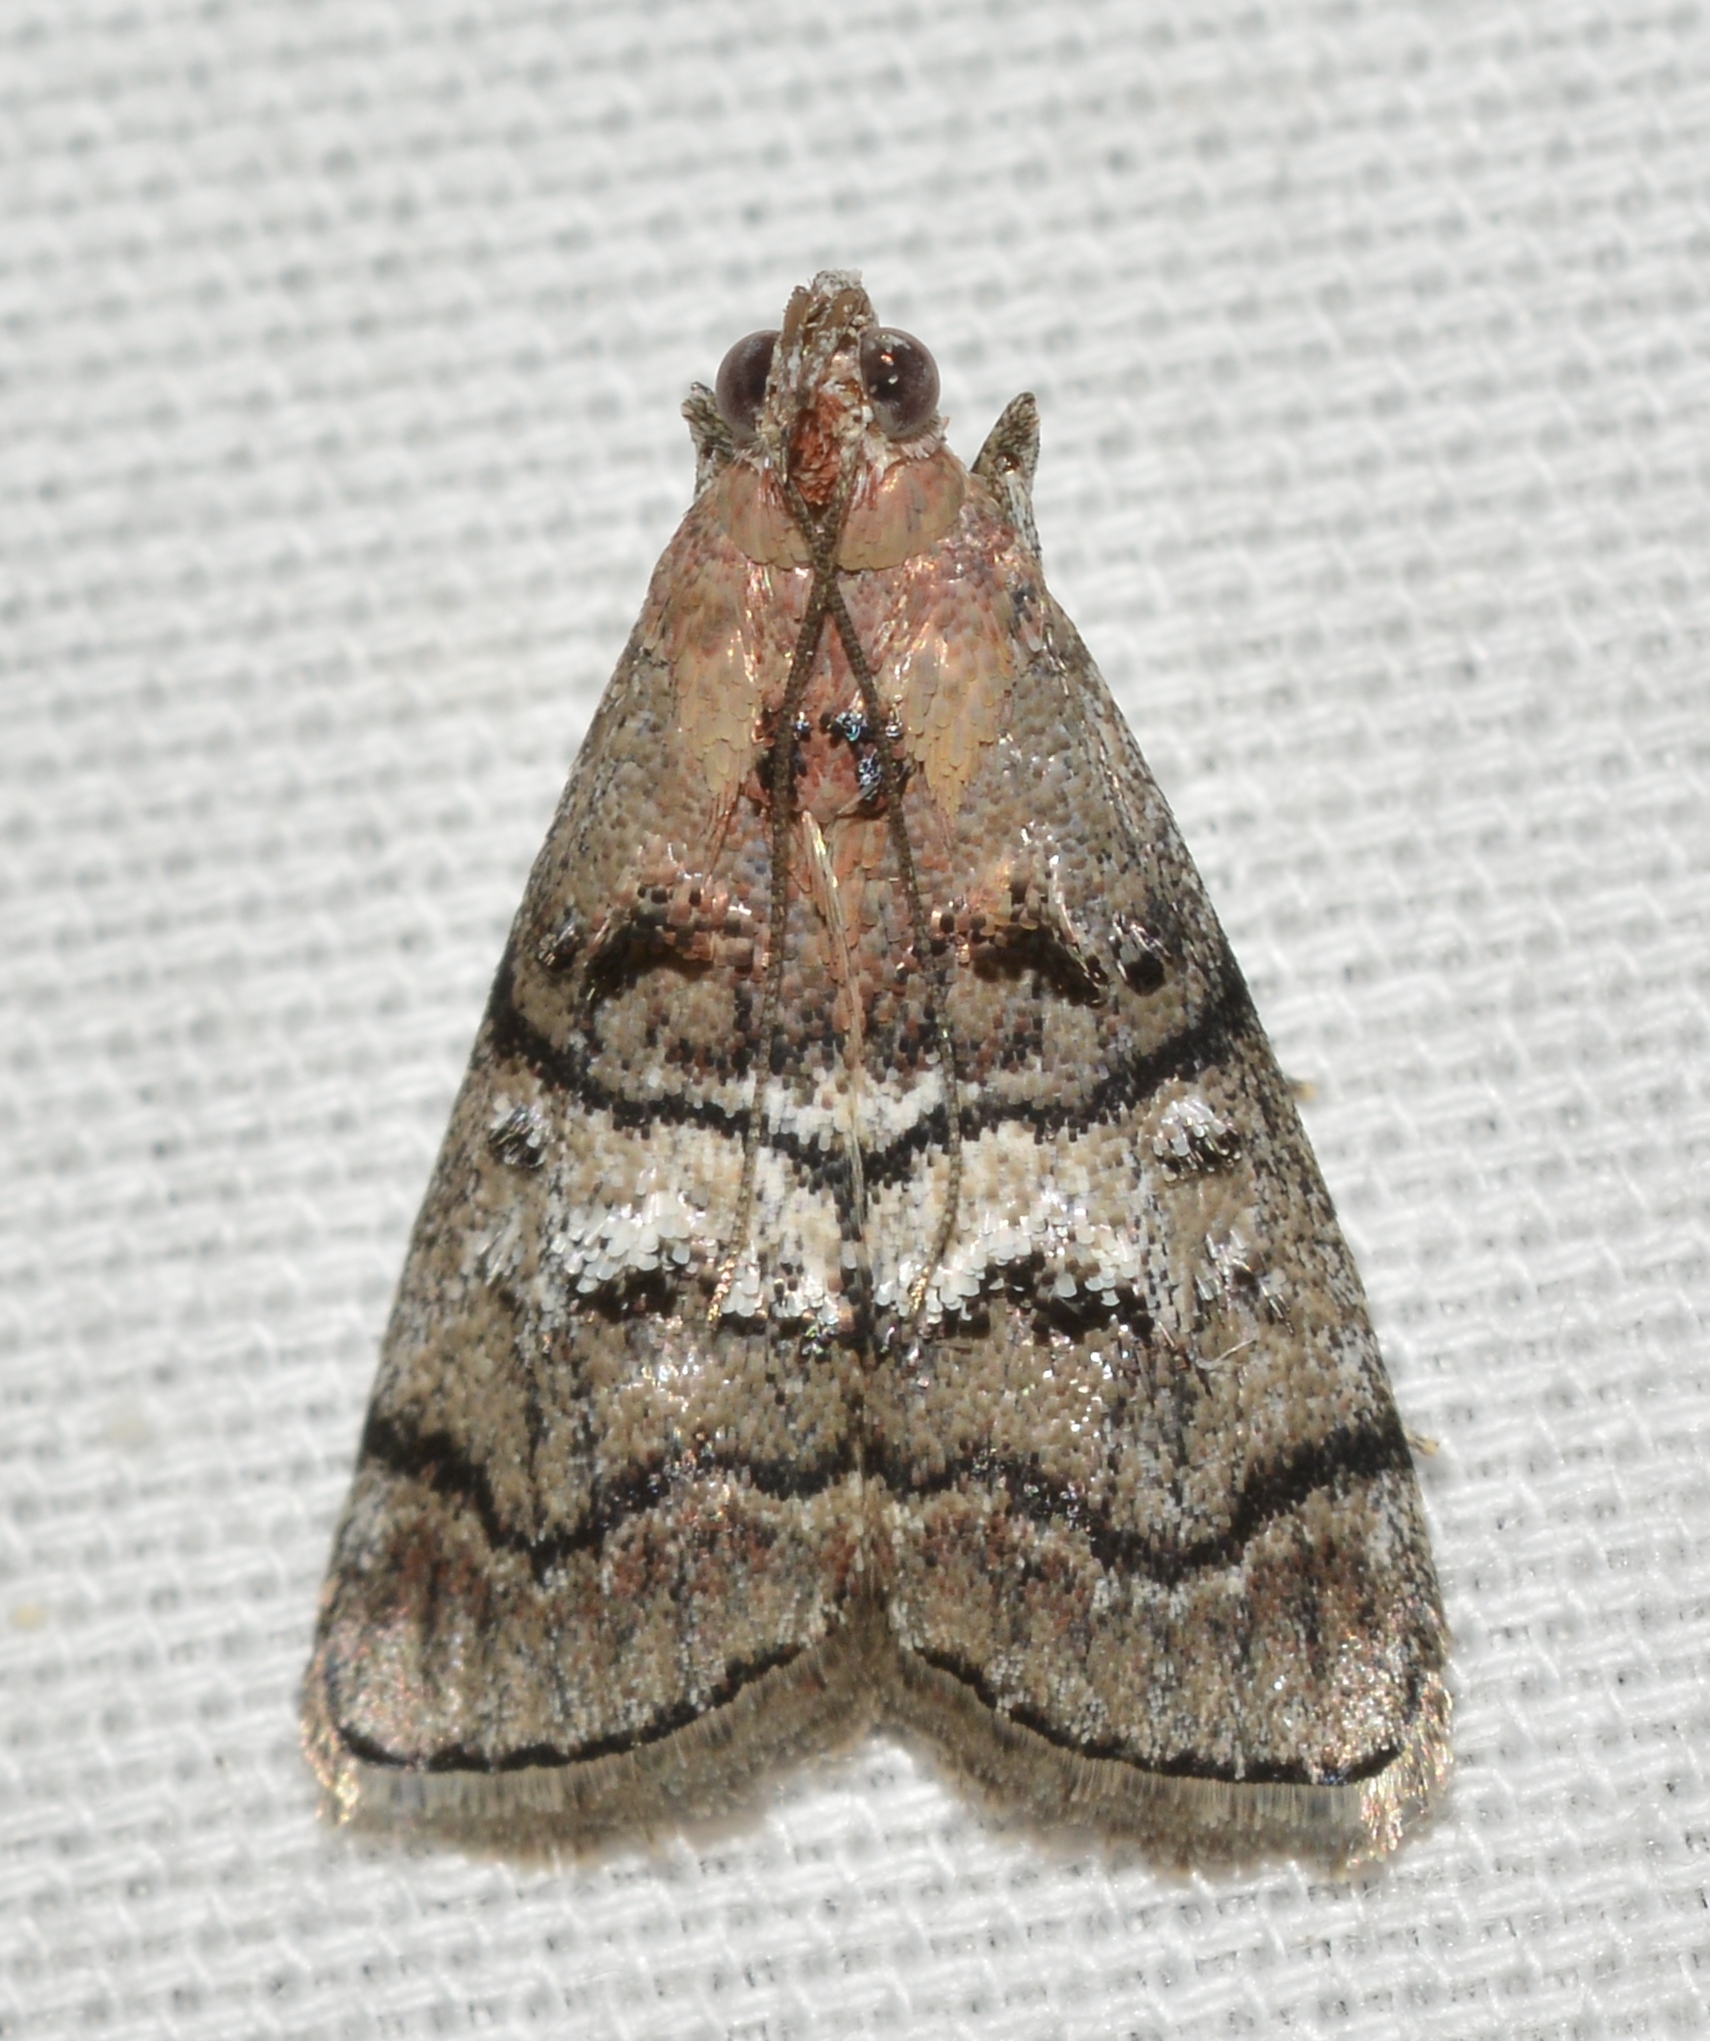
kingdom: Animalia
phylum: Arthropoda
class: Insecta
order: Lepidoptera
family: Pyralidae
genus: Pococera
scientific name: Pococera asperatella
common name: Maple webworm moth
